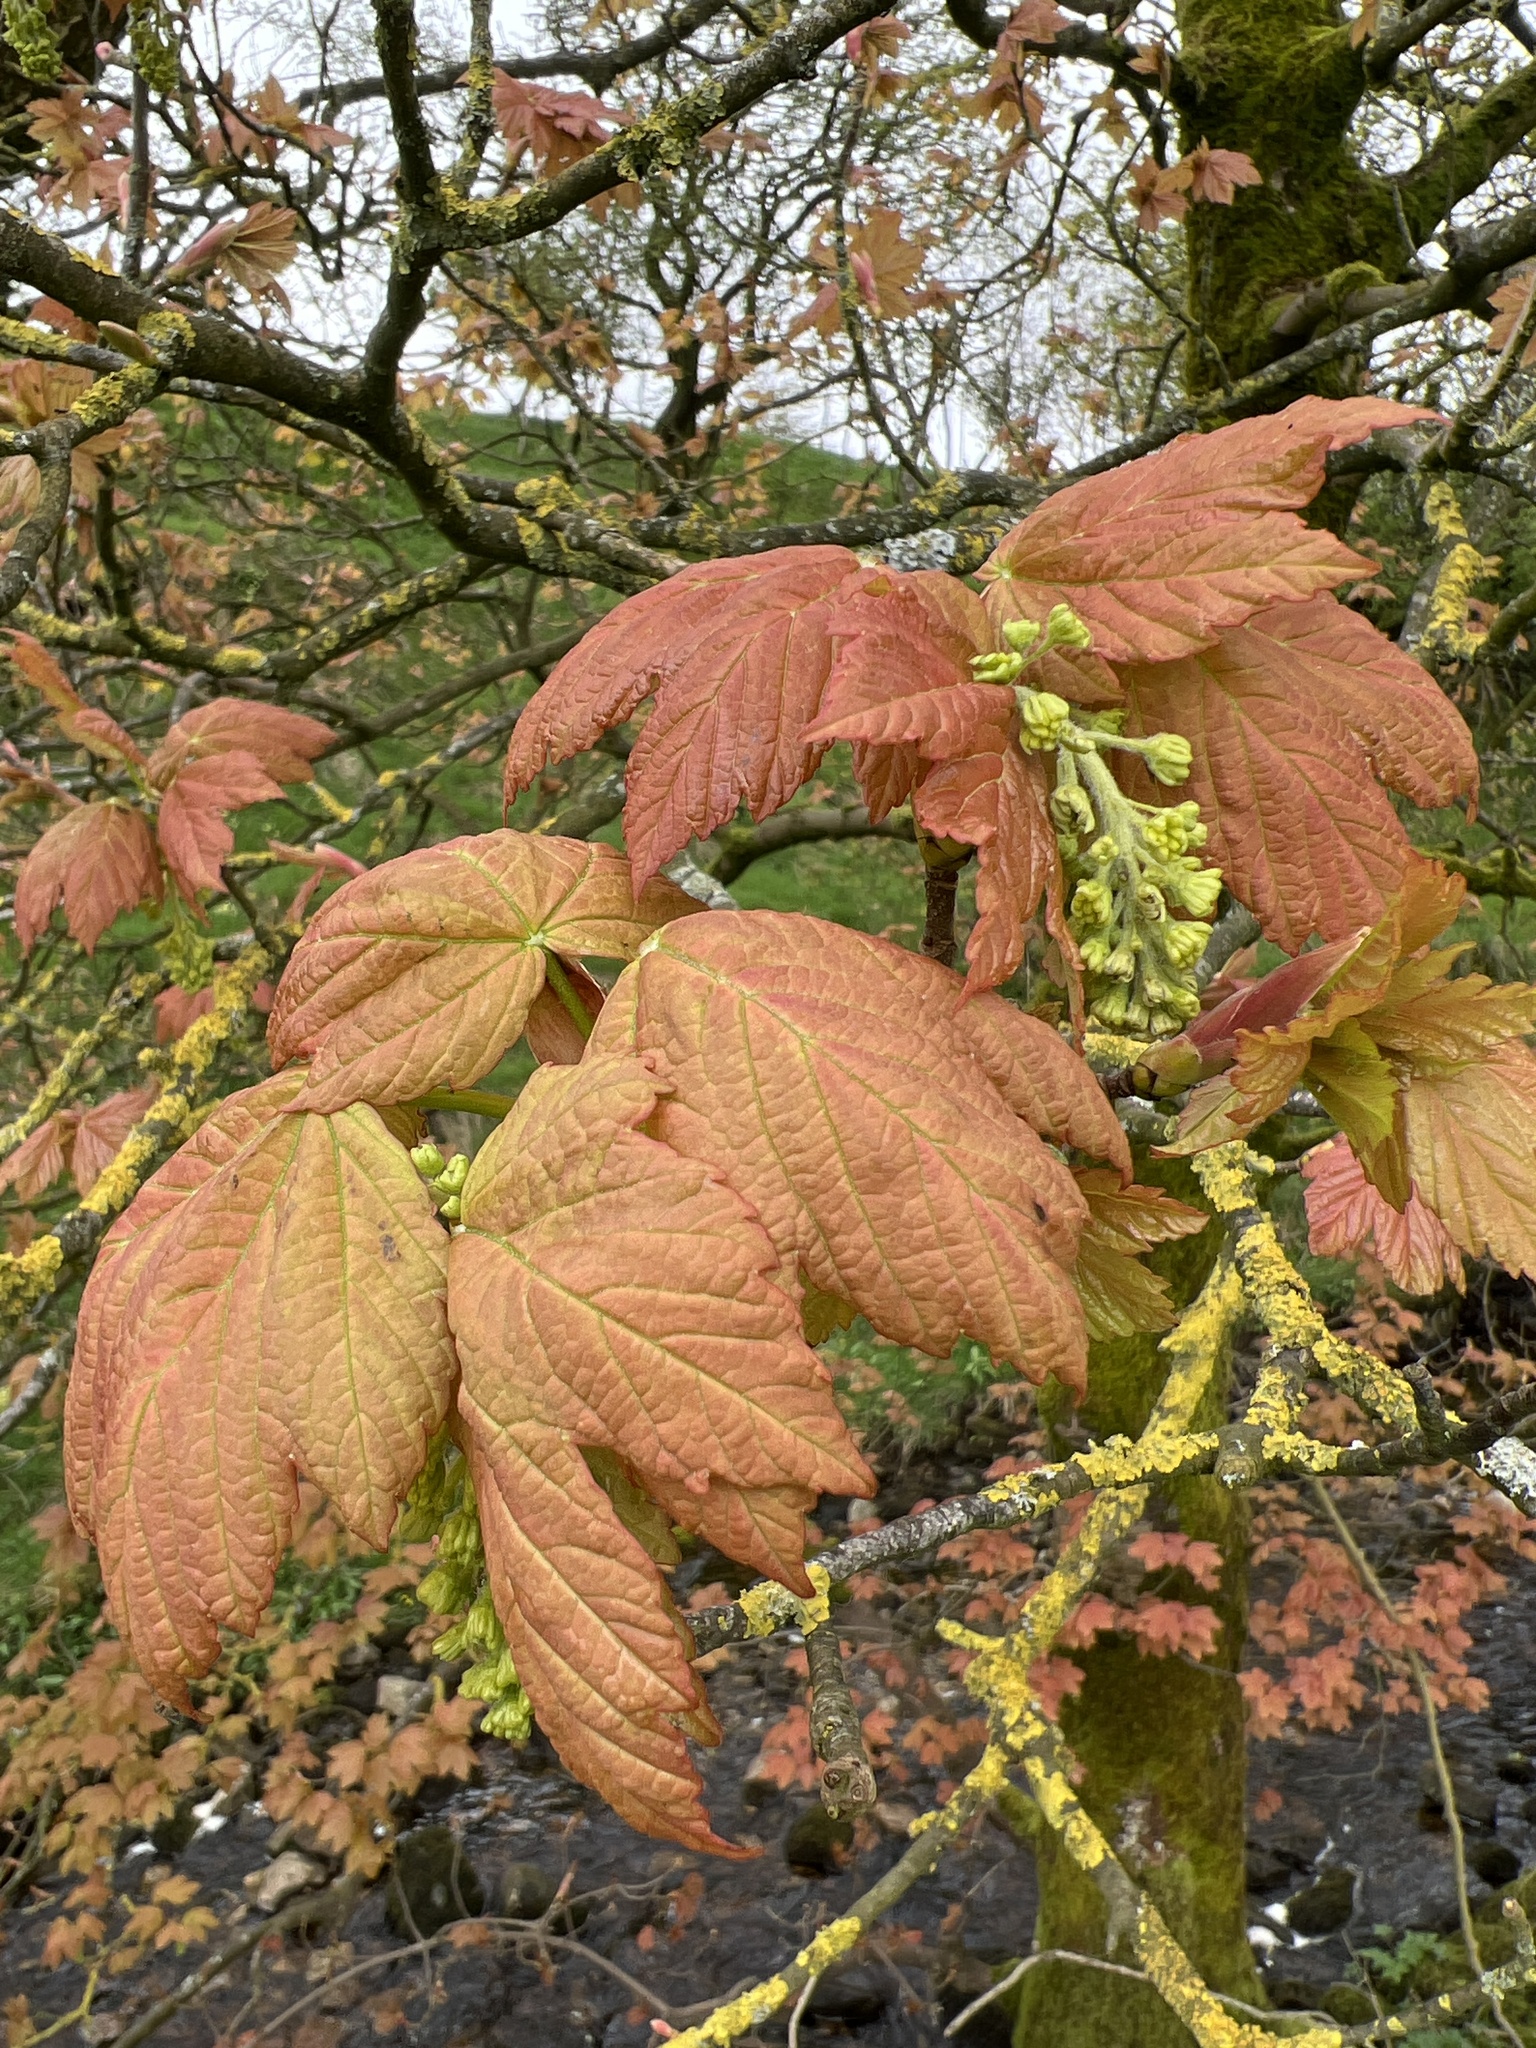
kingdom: Plantae
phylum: Tracheophyta
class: Magnoliopsida
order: Sapindales
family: Sapindaceae
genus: Acer
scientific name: Acer pseudoplatanus
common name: Sycamore
